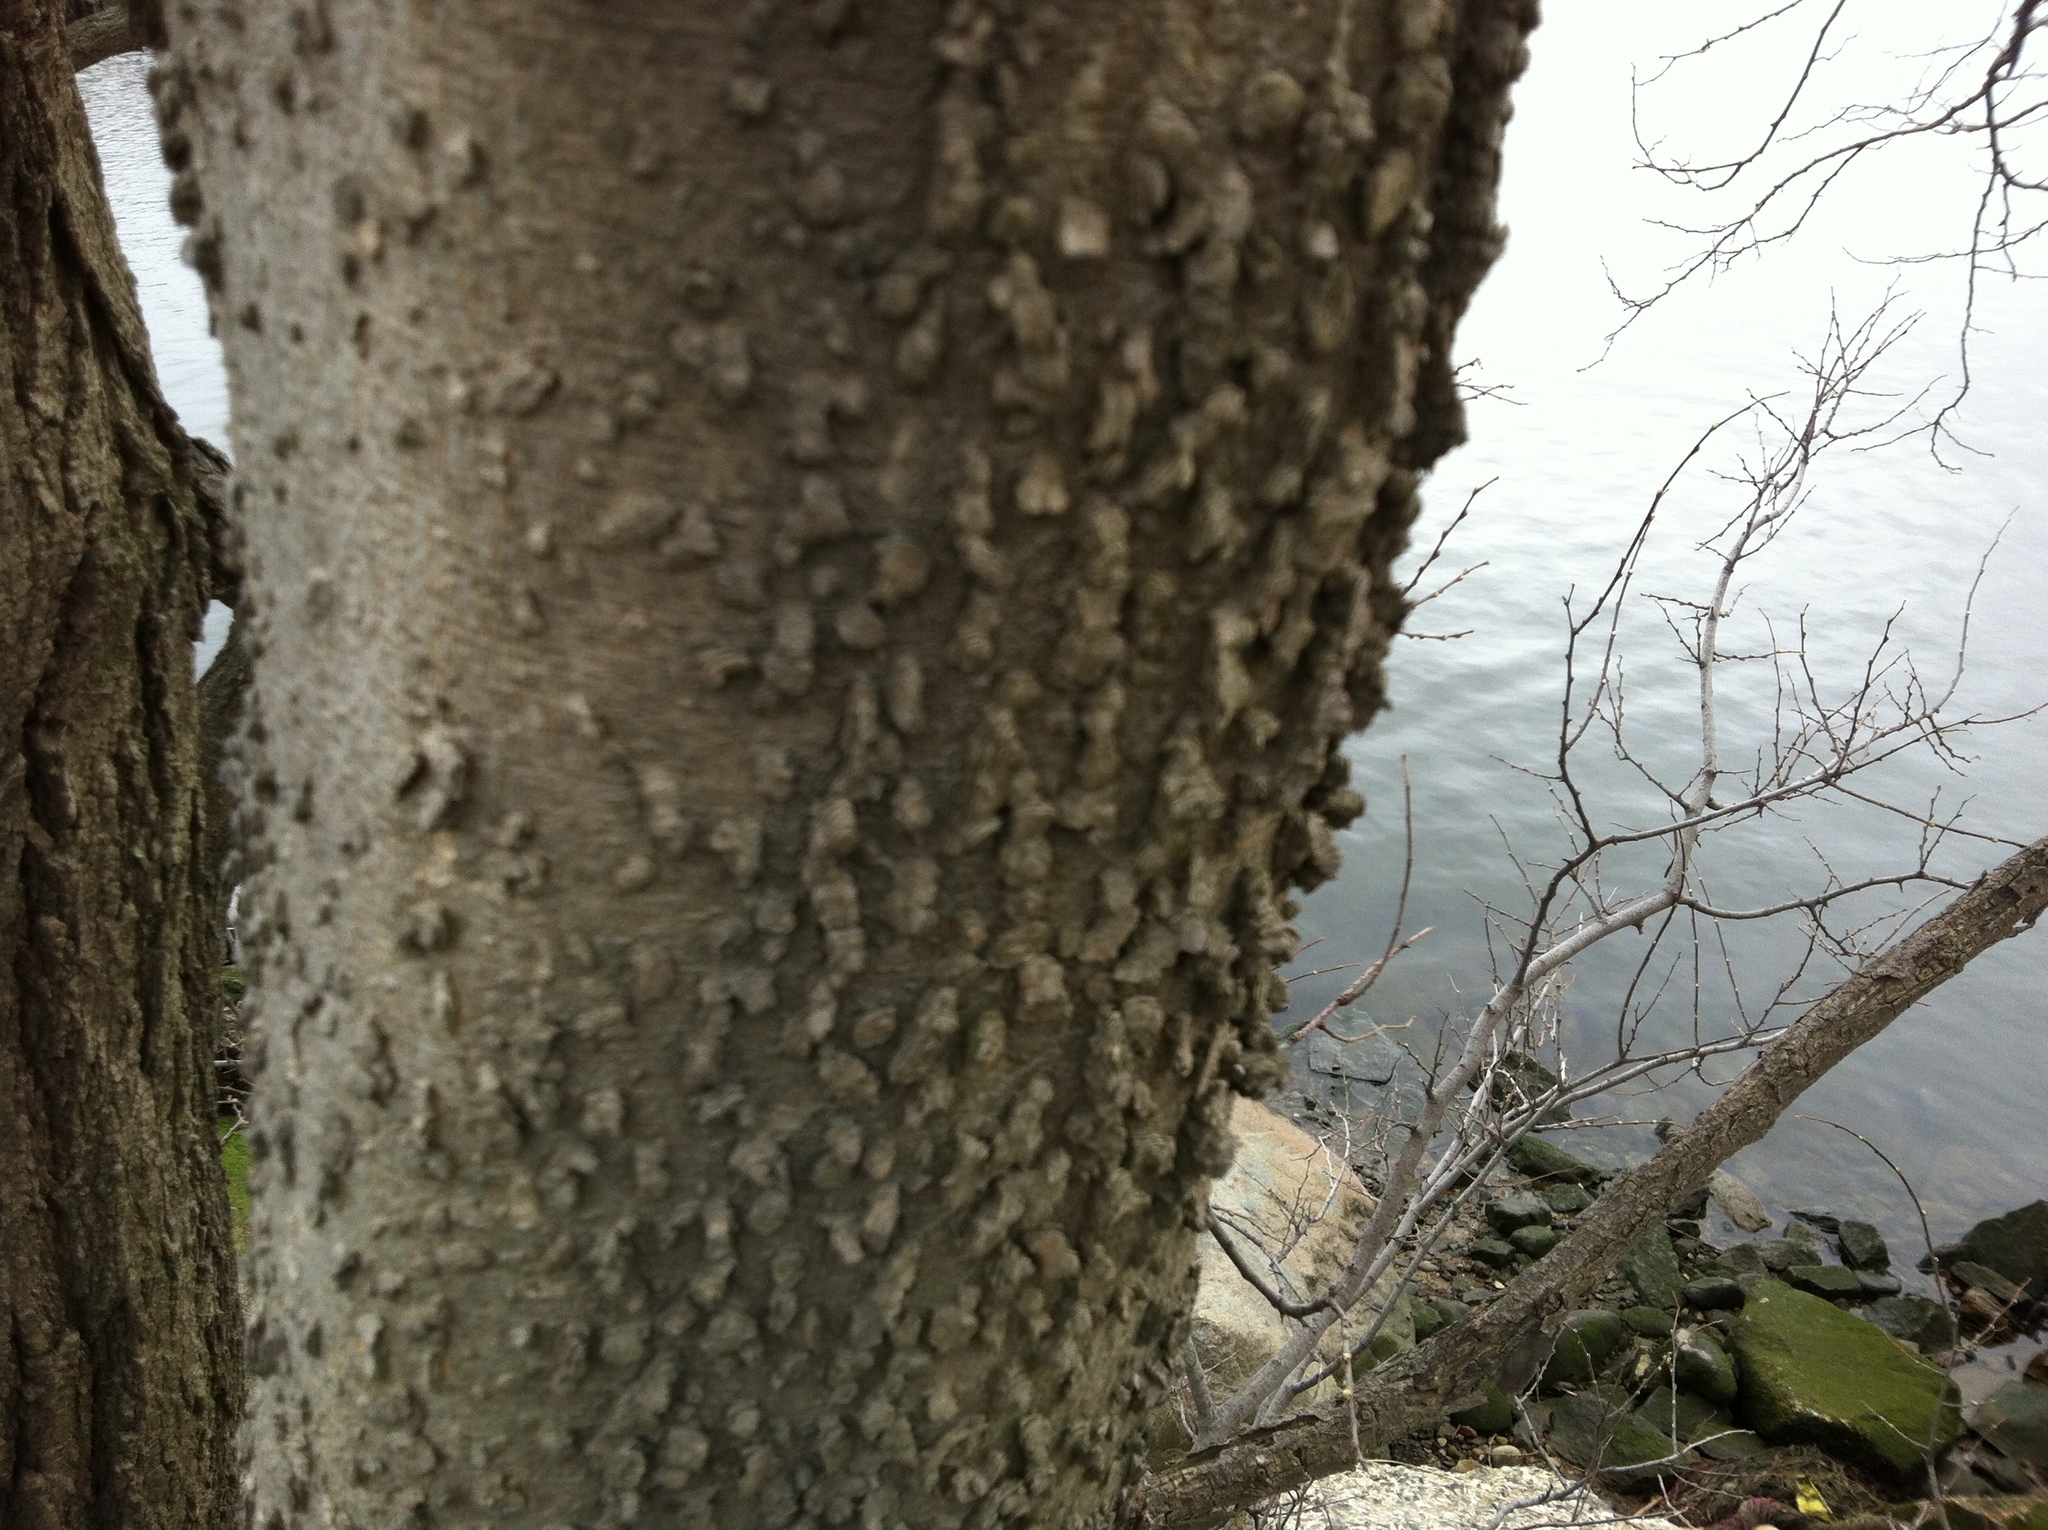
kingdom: Plantae
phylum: Tracheophyta
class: Magnoliopsida
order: Rosales
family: Cannabaceae
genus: Celtis
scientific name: Celtis occidentalis
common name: Common hackberry
